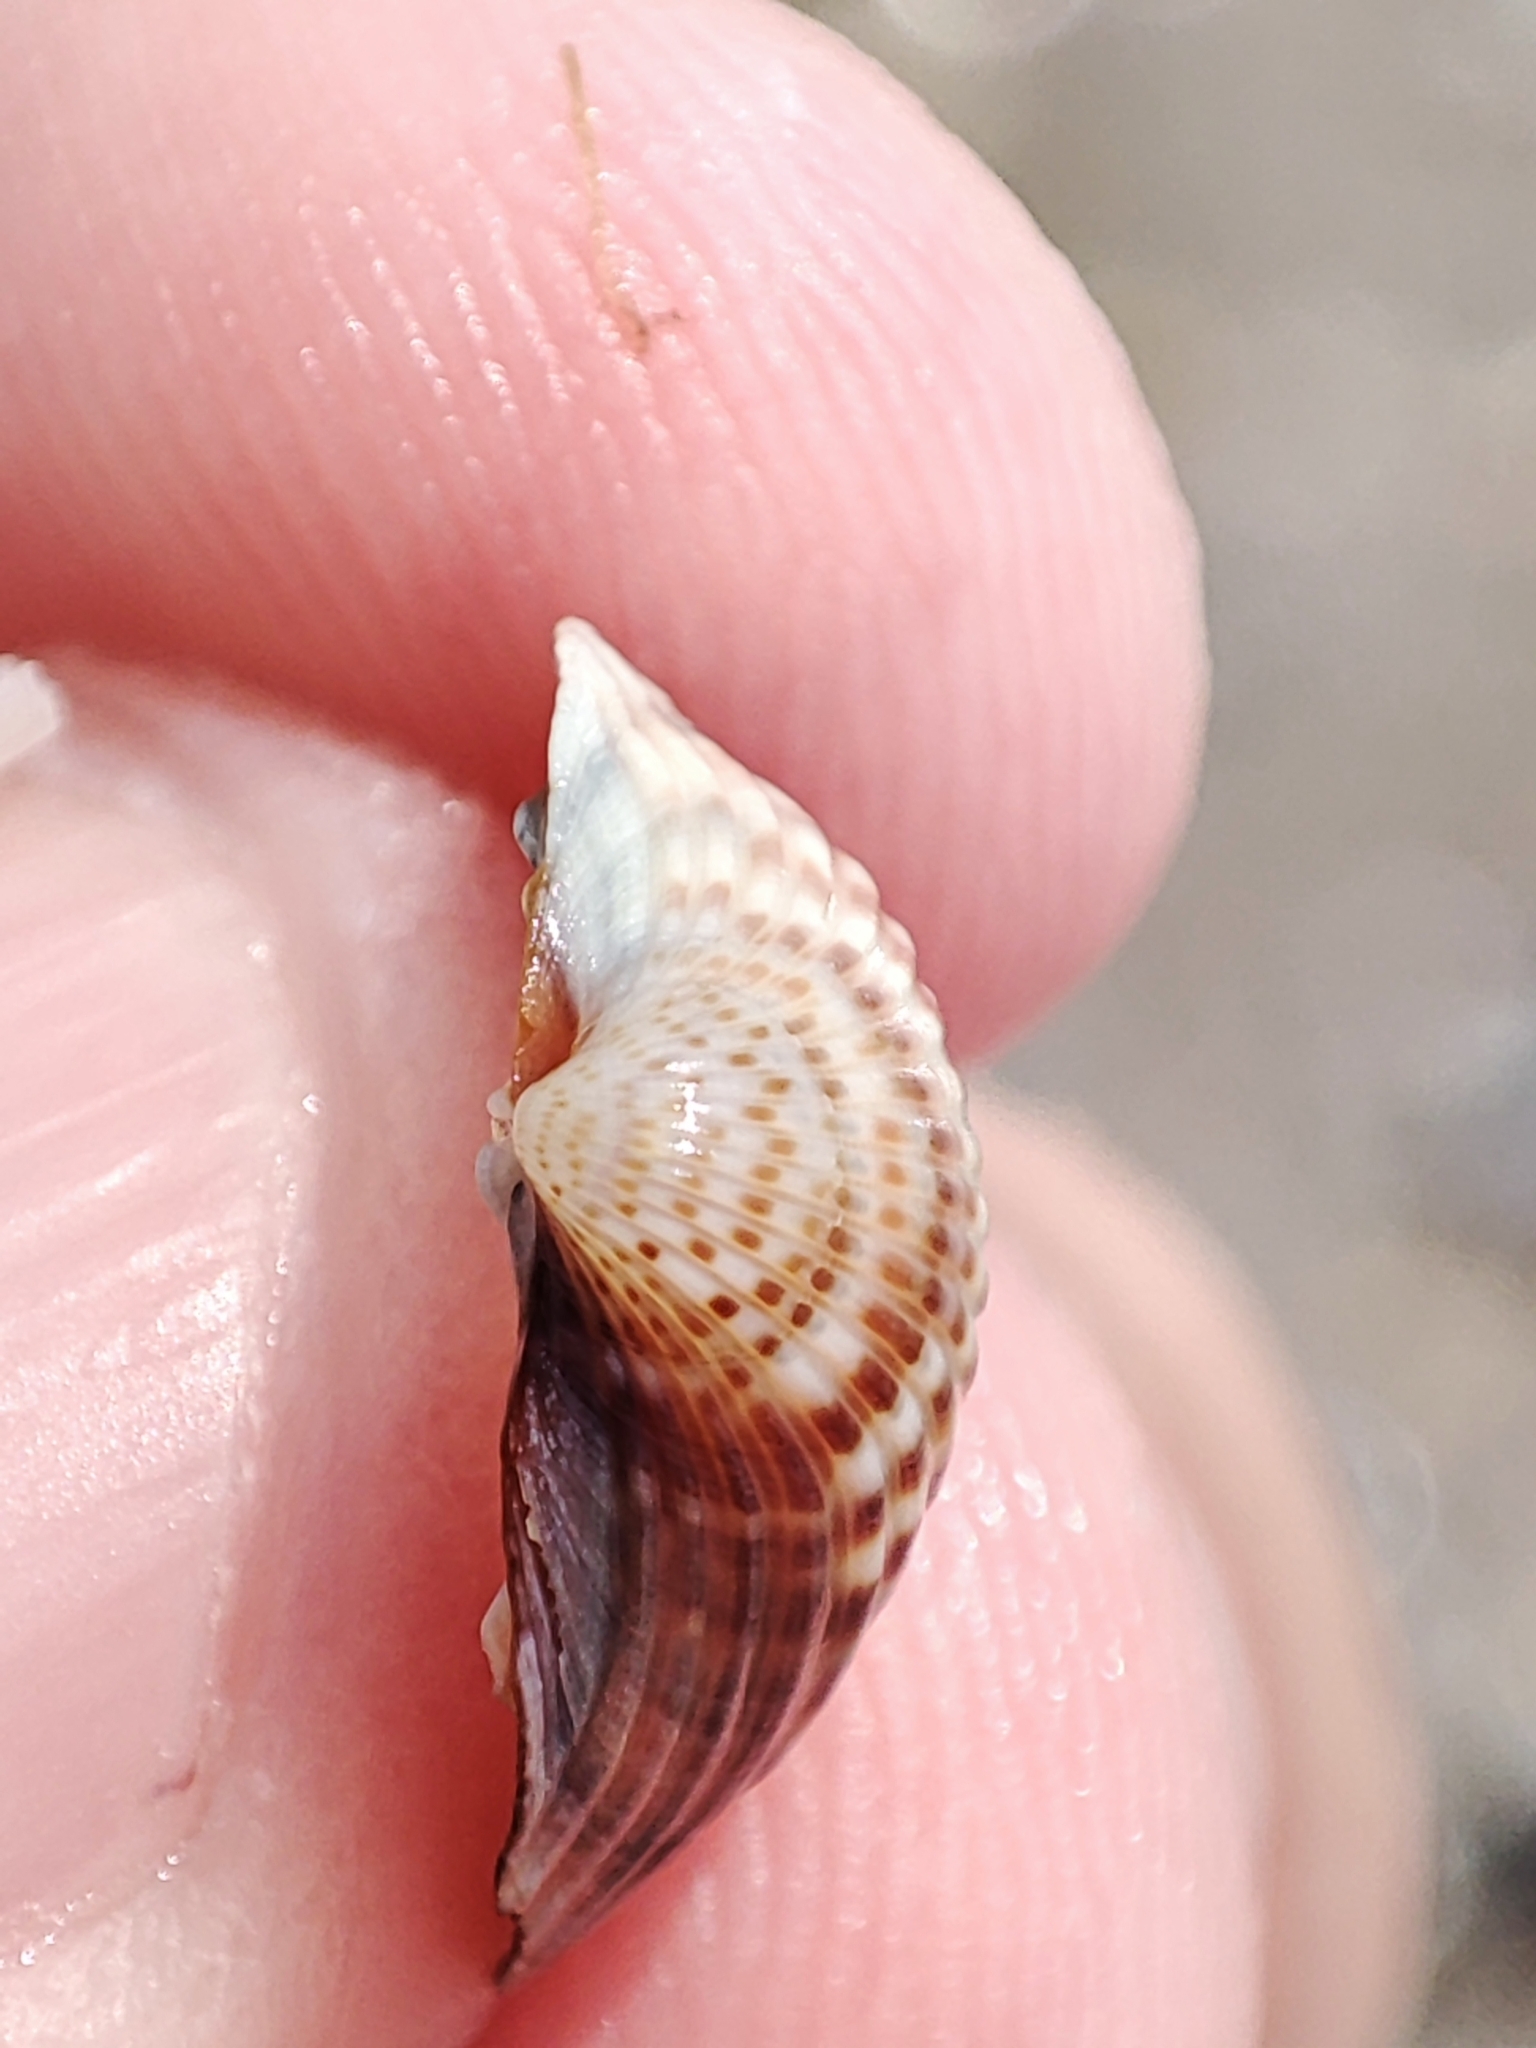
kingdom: Animalia
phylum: Mollusca
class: Bivalvia
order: Cardiida
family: Cardiidae
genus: Cerastoderma
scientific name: Cerastoderma glaucum
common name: Lagoon cockle
